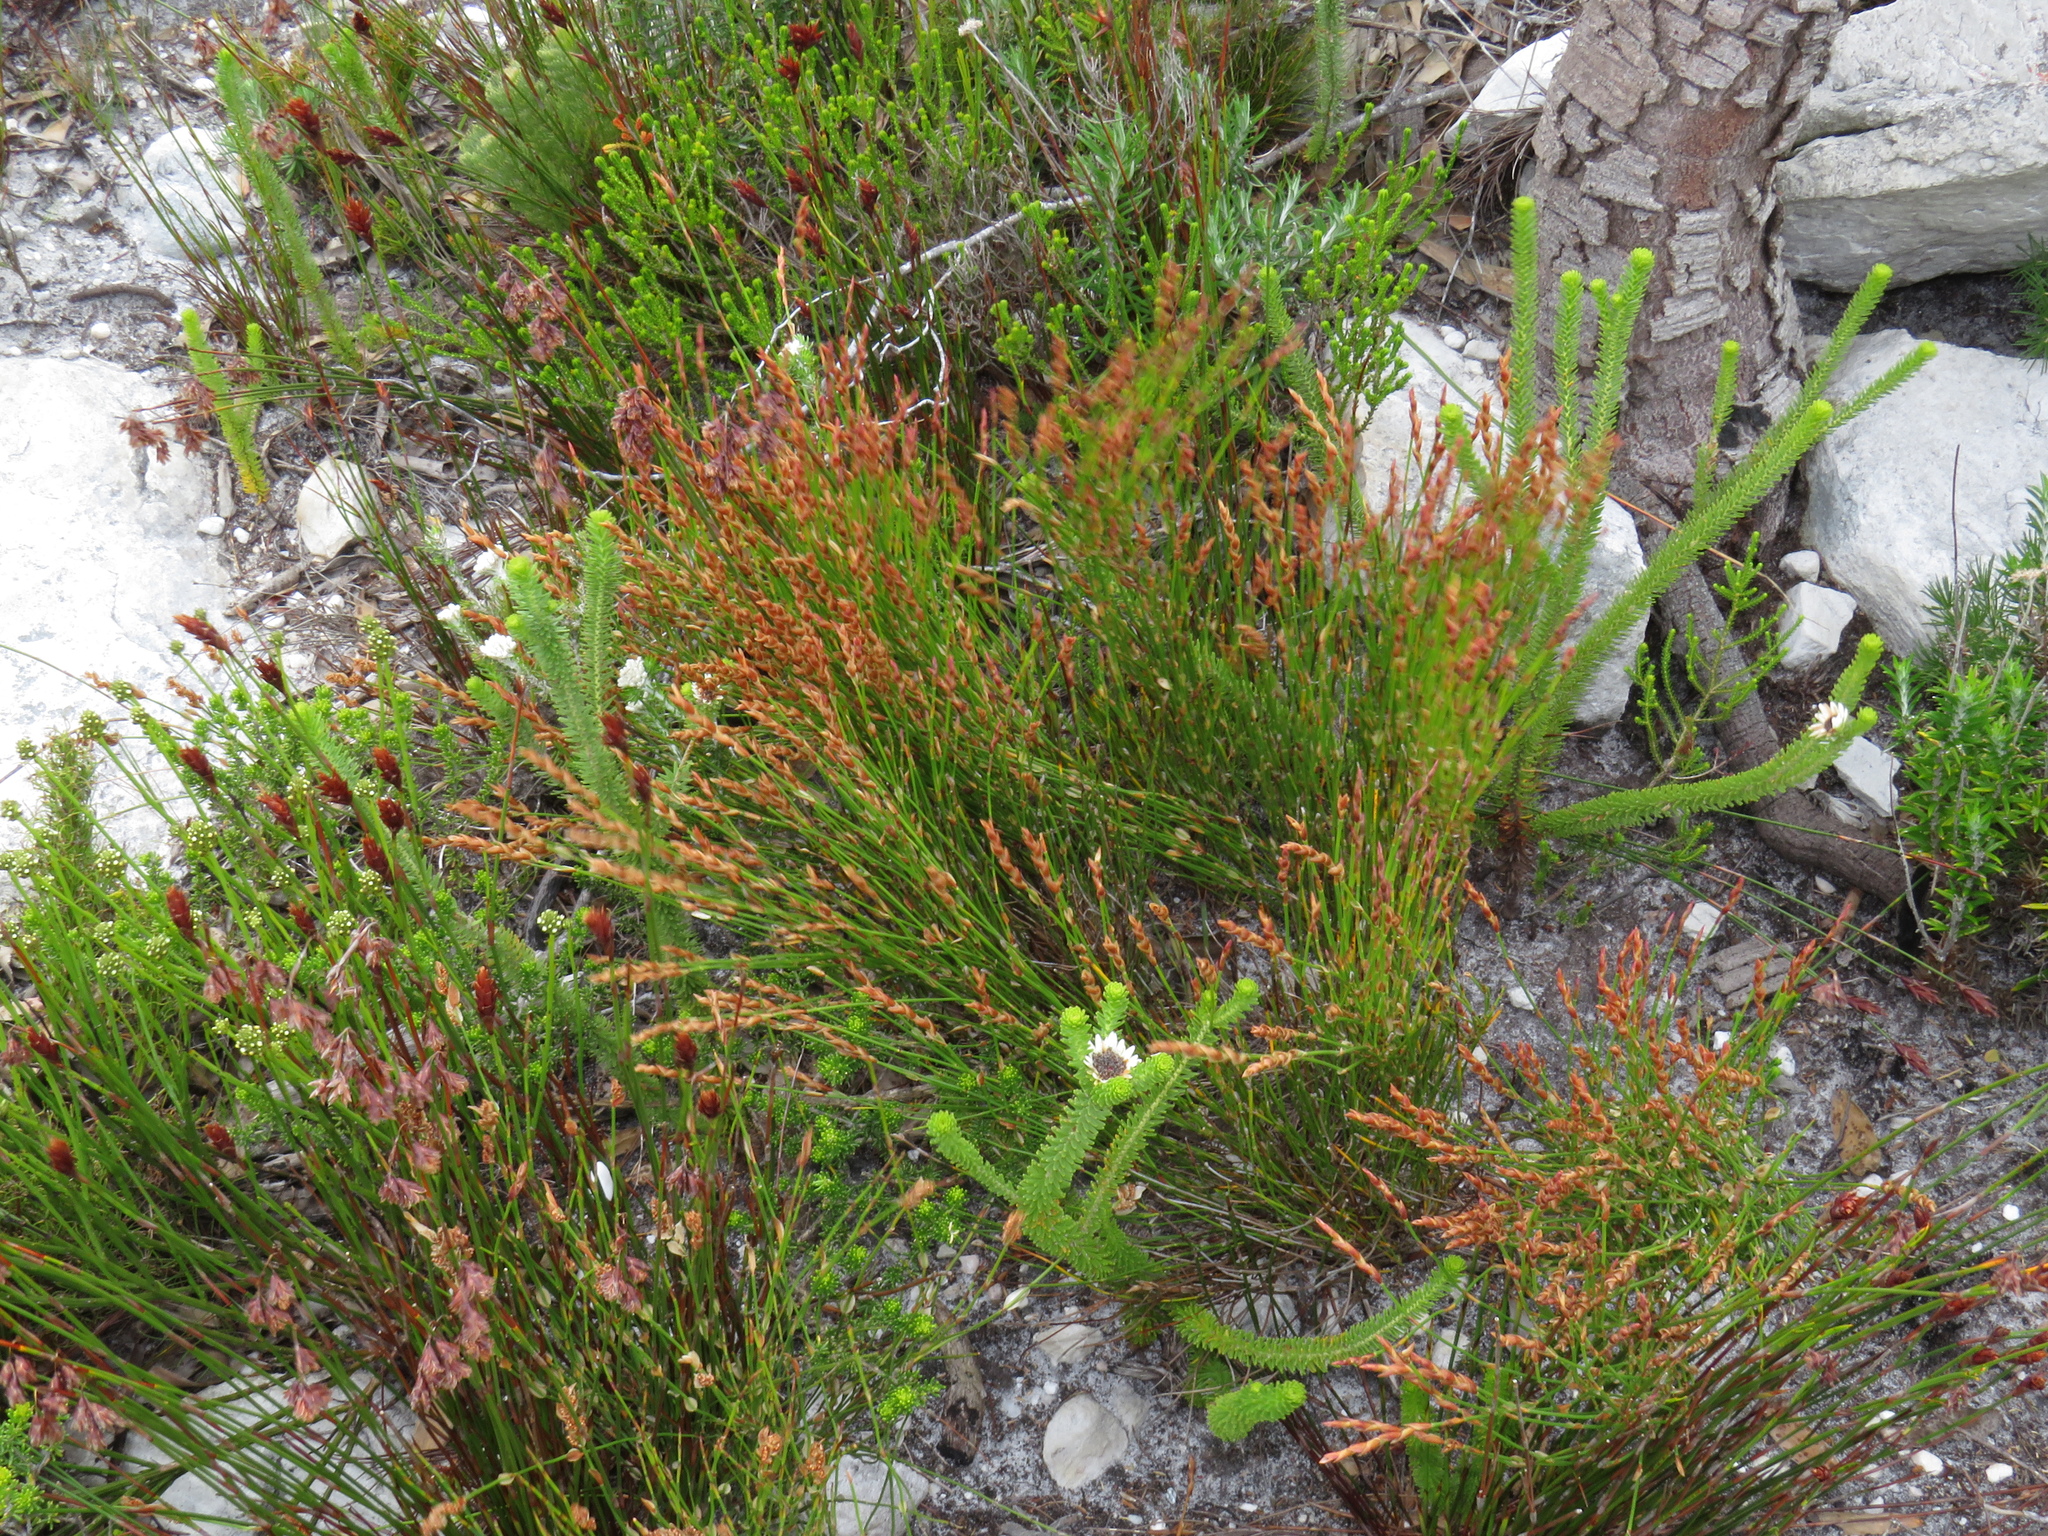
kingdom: Plantae
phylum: Tracheophyta
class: Magnoliopsida
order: Bruniales
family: Bruniaceae
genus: Staavia
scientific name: Staavia dodii
